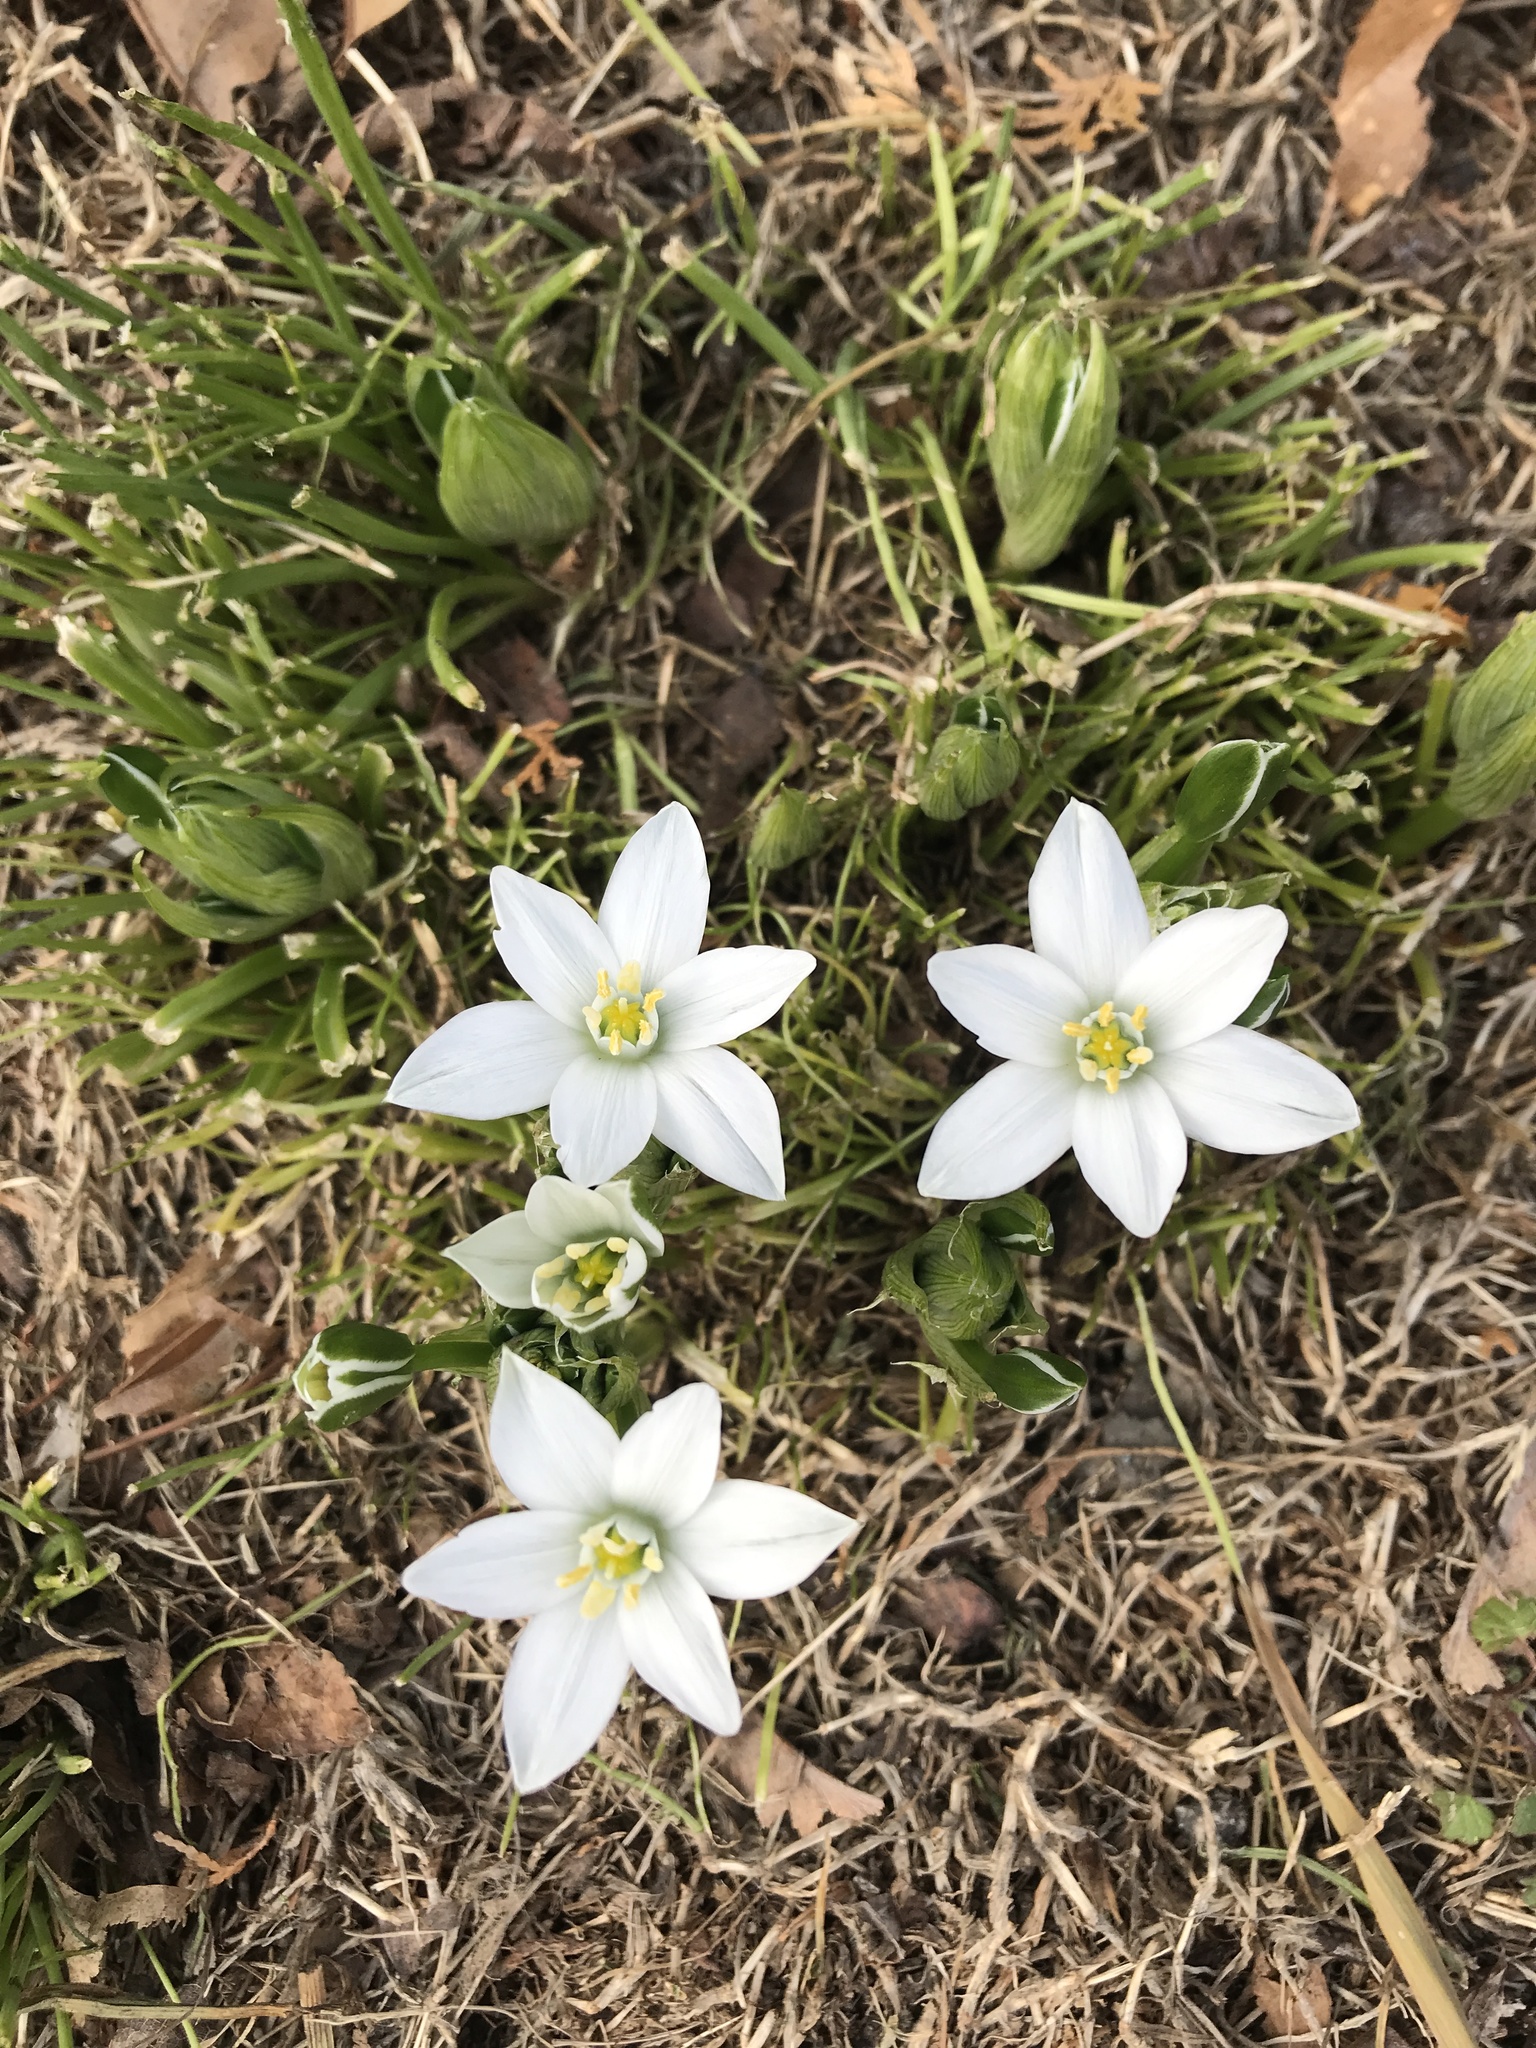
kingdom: Plantae
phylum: Tracheophyta
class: Liliopsida
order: Asparagales
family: Asparagaceae
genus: Ornithogalum
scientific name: Ornithogalum umbellatum
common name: Garden star-of-bethlehem
